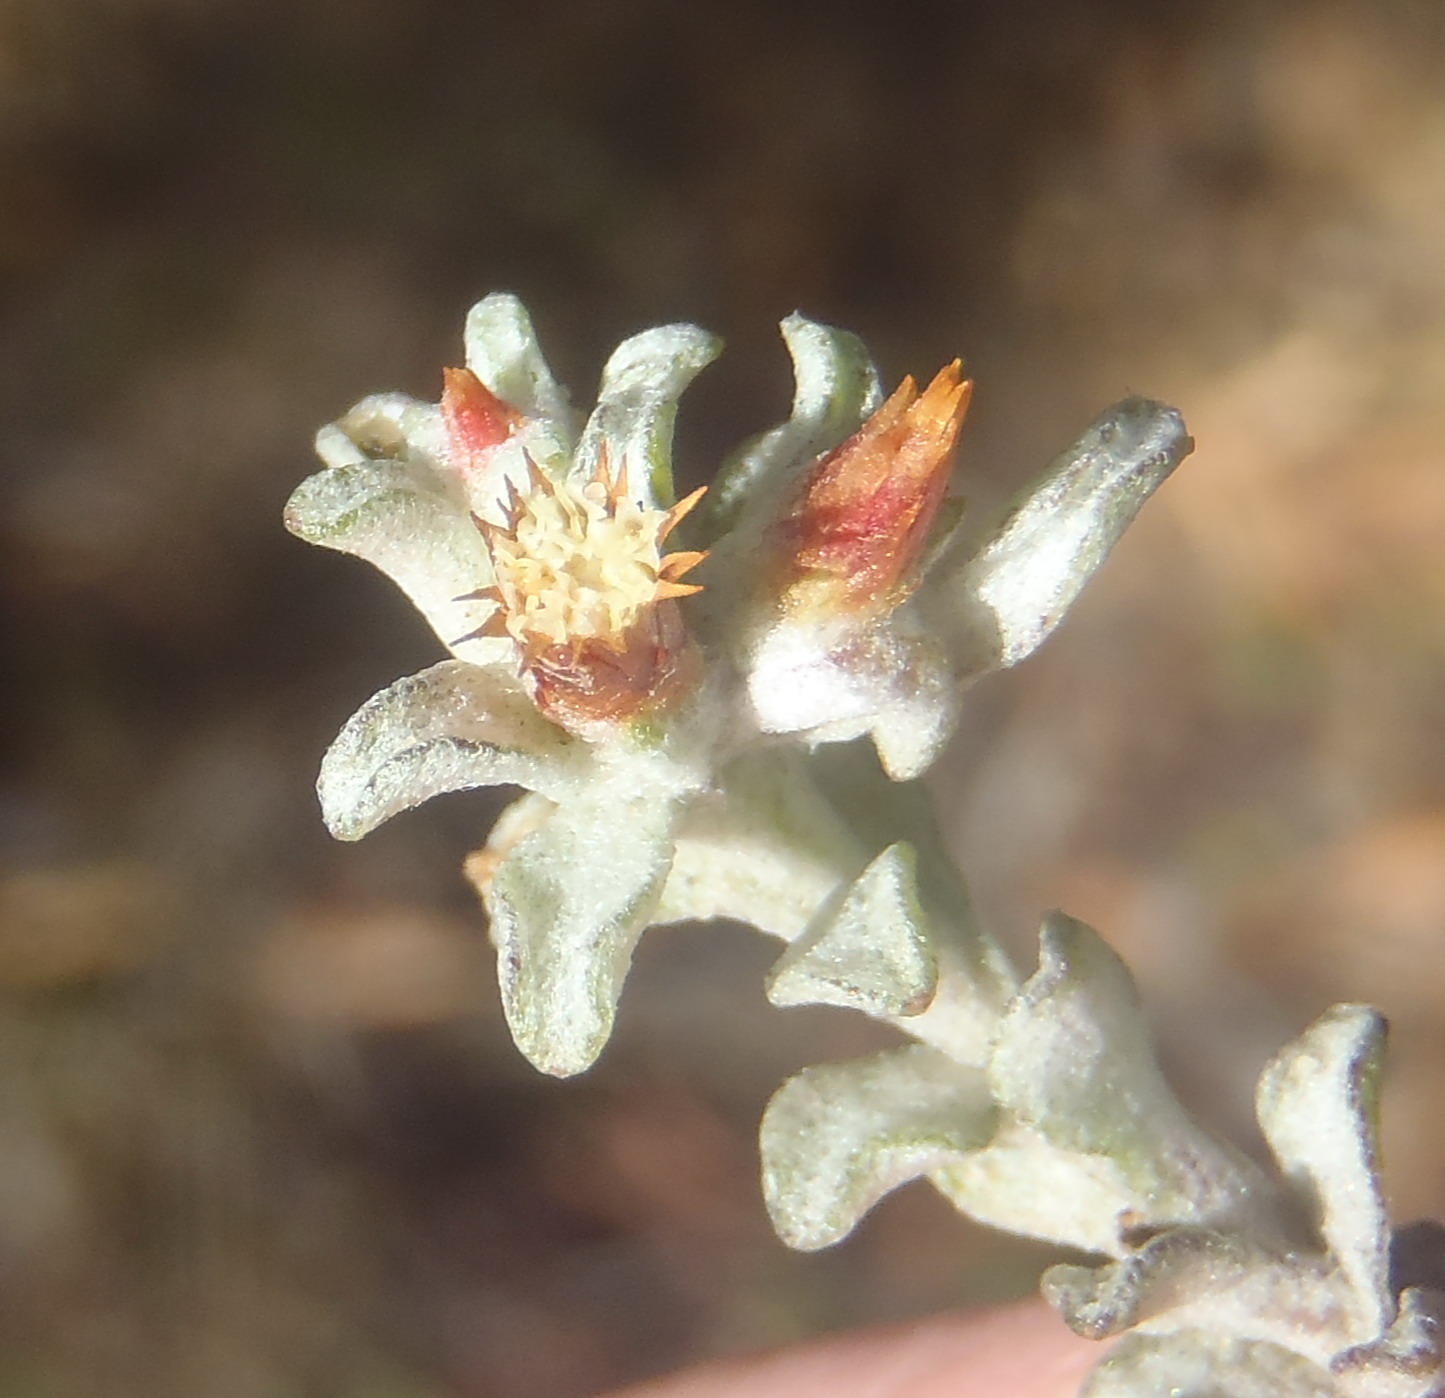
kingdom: Plantae
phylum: Tracheophyta
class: Magnoliopsida
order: Asterales
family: Asteraceae
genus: Helichrysum
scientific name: Helichrysum tinctum
